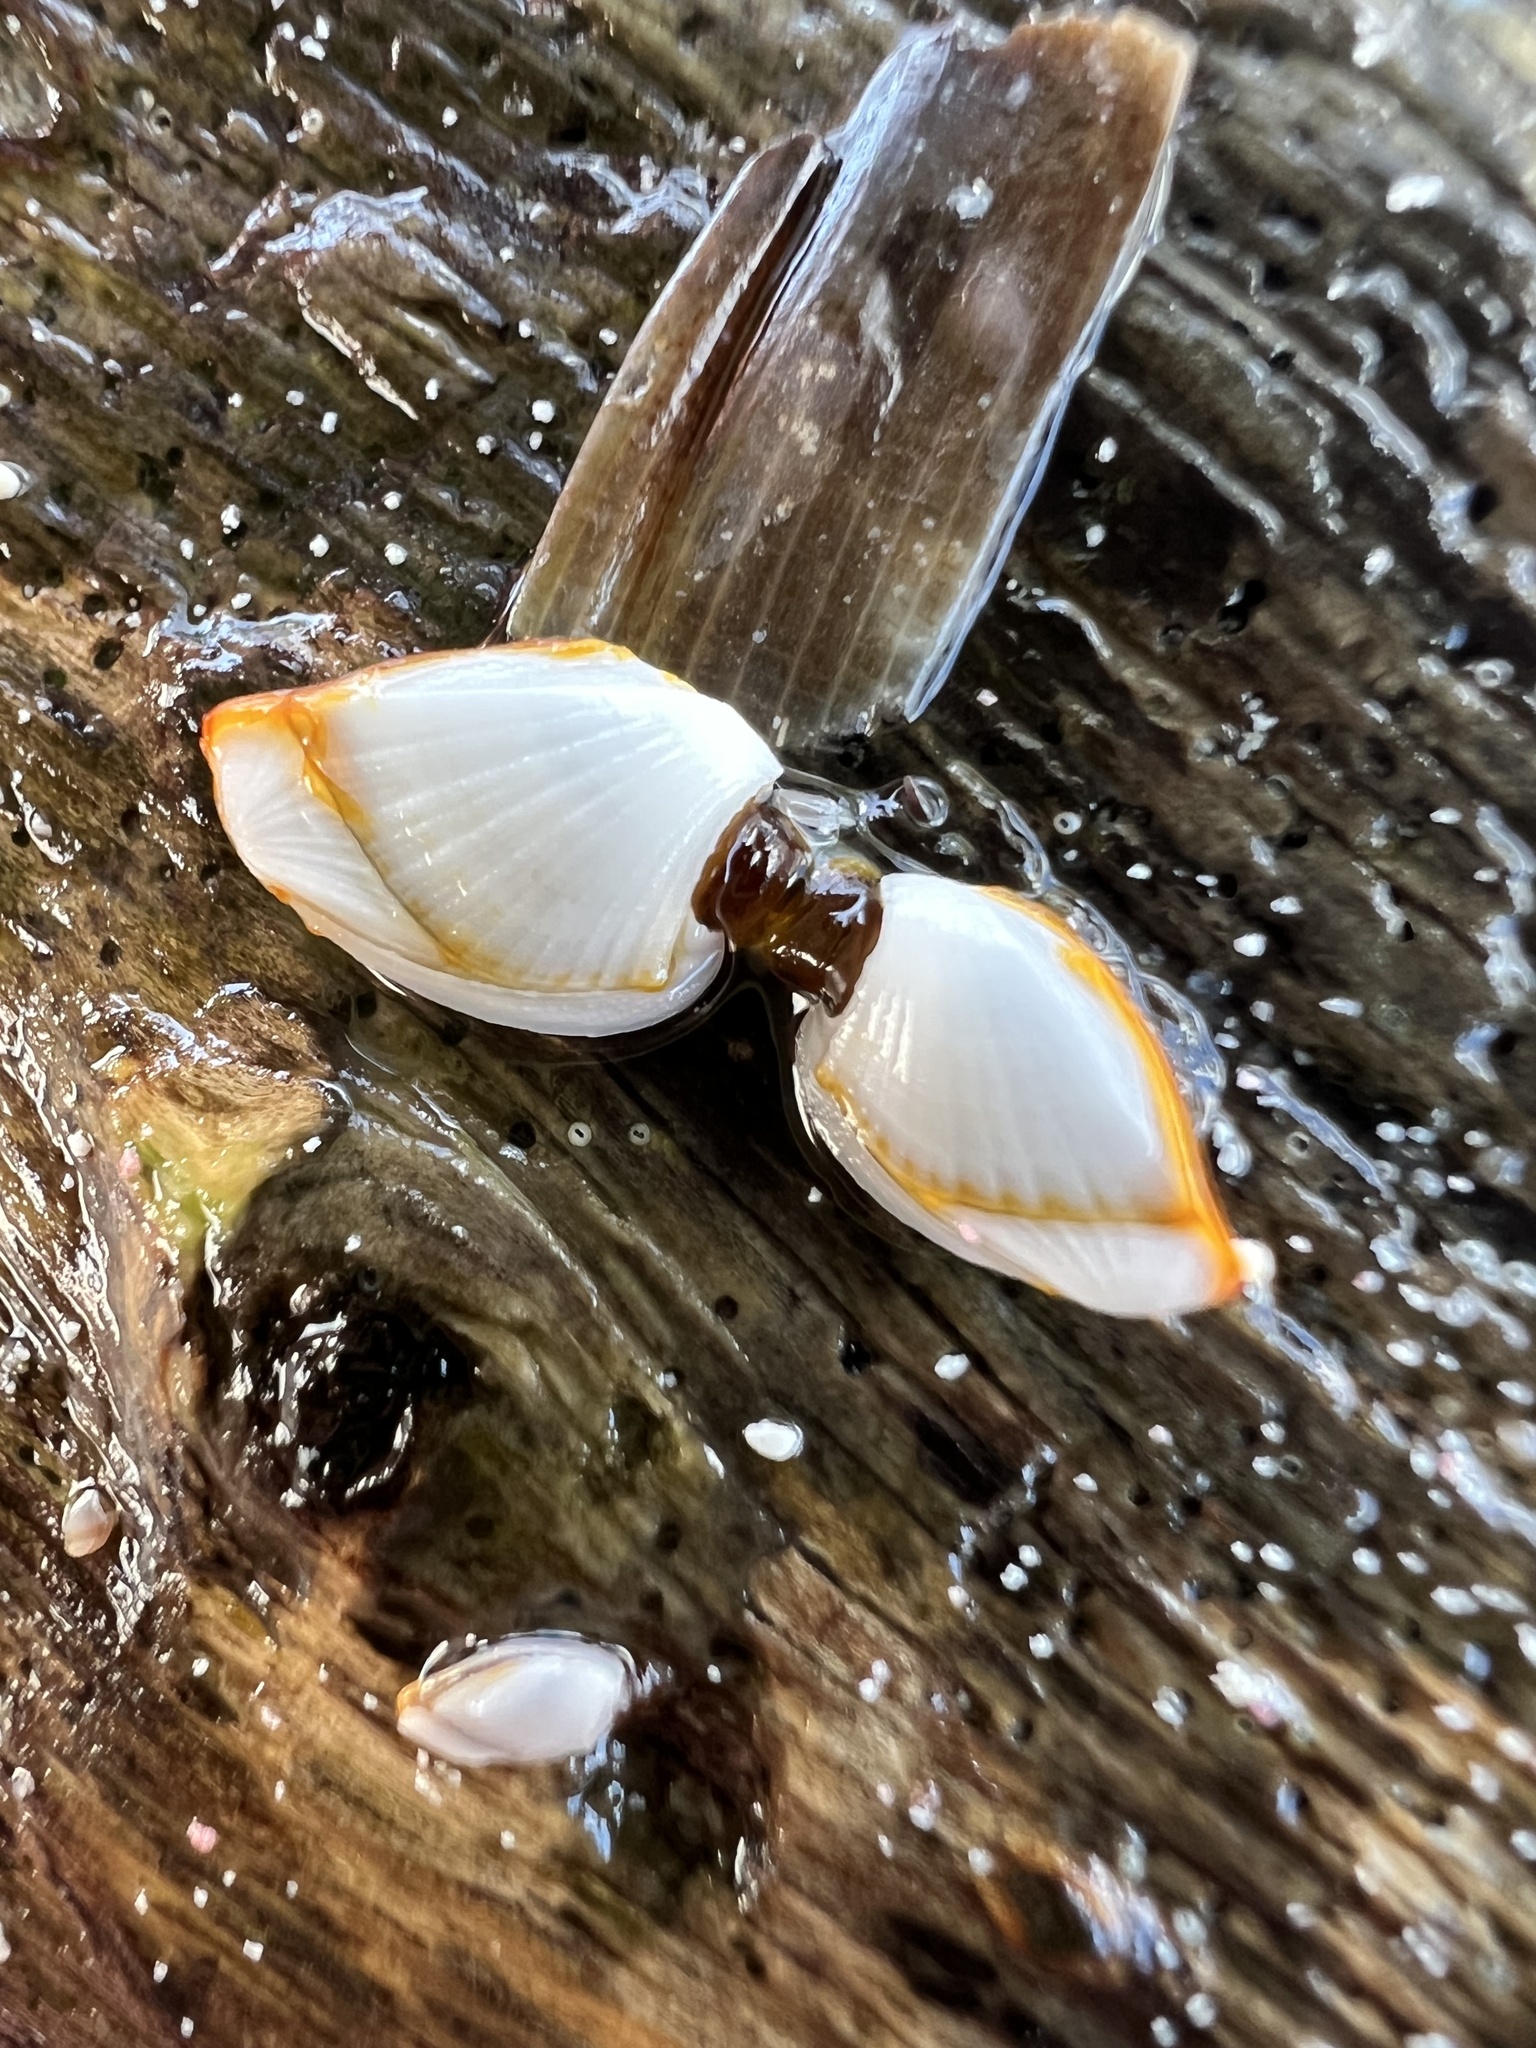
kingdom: Animalia
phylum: Arthropoda
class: Maxillopoda
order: Pedunculata
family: Lepadidae
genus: Lepas
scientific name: Lepas anserifera
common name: Goose barnacle
